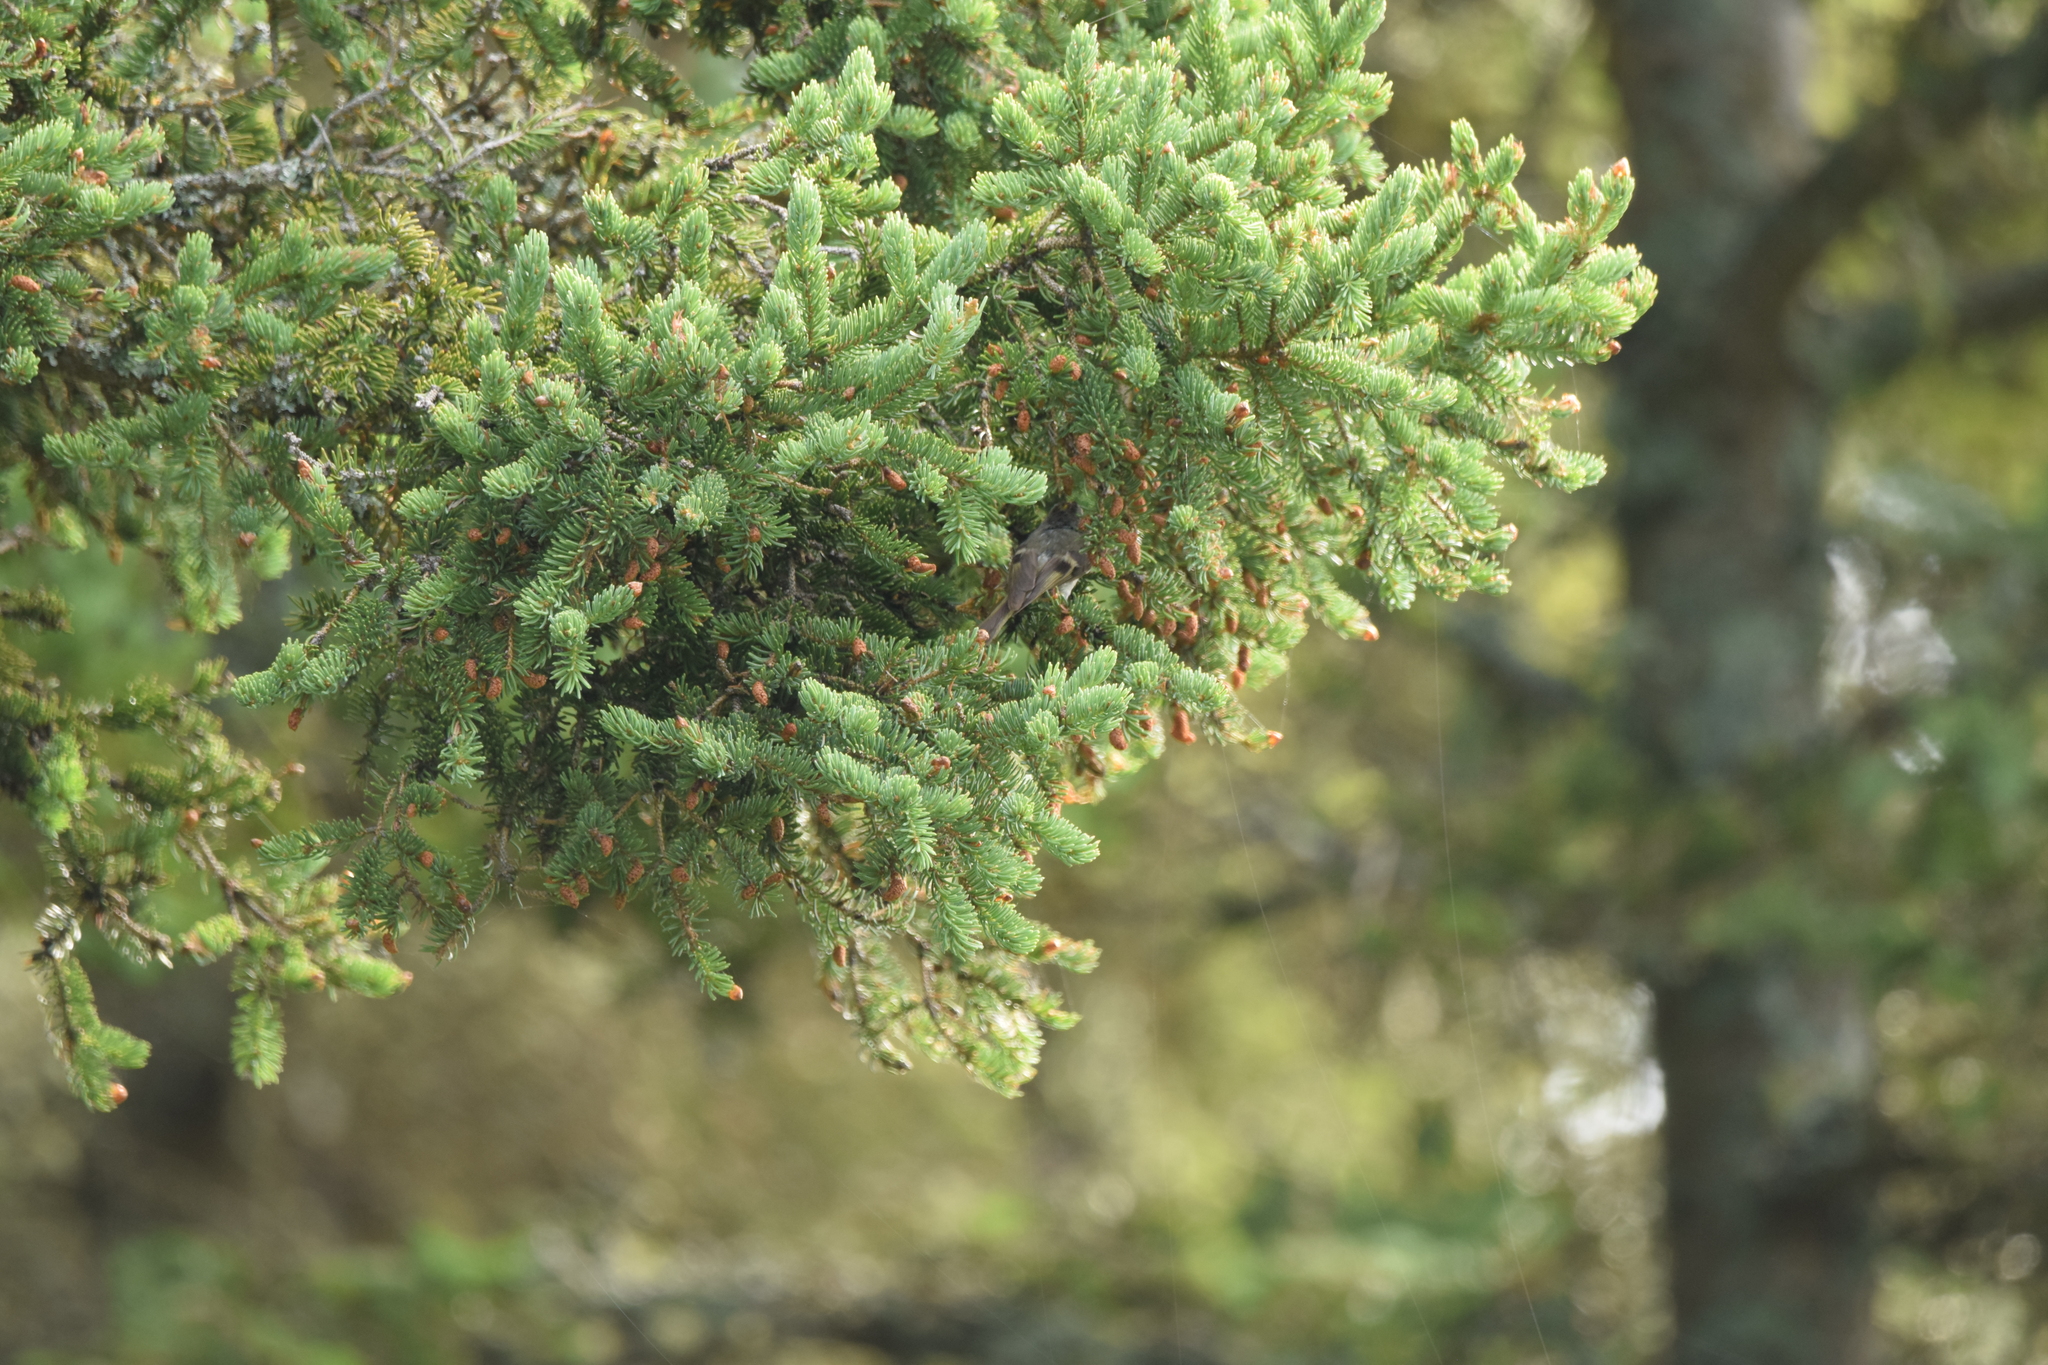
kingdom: Animalia
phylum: Chordata
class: Aves
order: Passeriformes
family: Regulidae
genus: Regulus
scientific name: Regulus satrapa
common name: Golden-crowned kinglet
